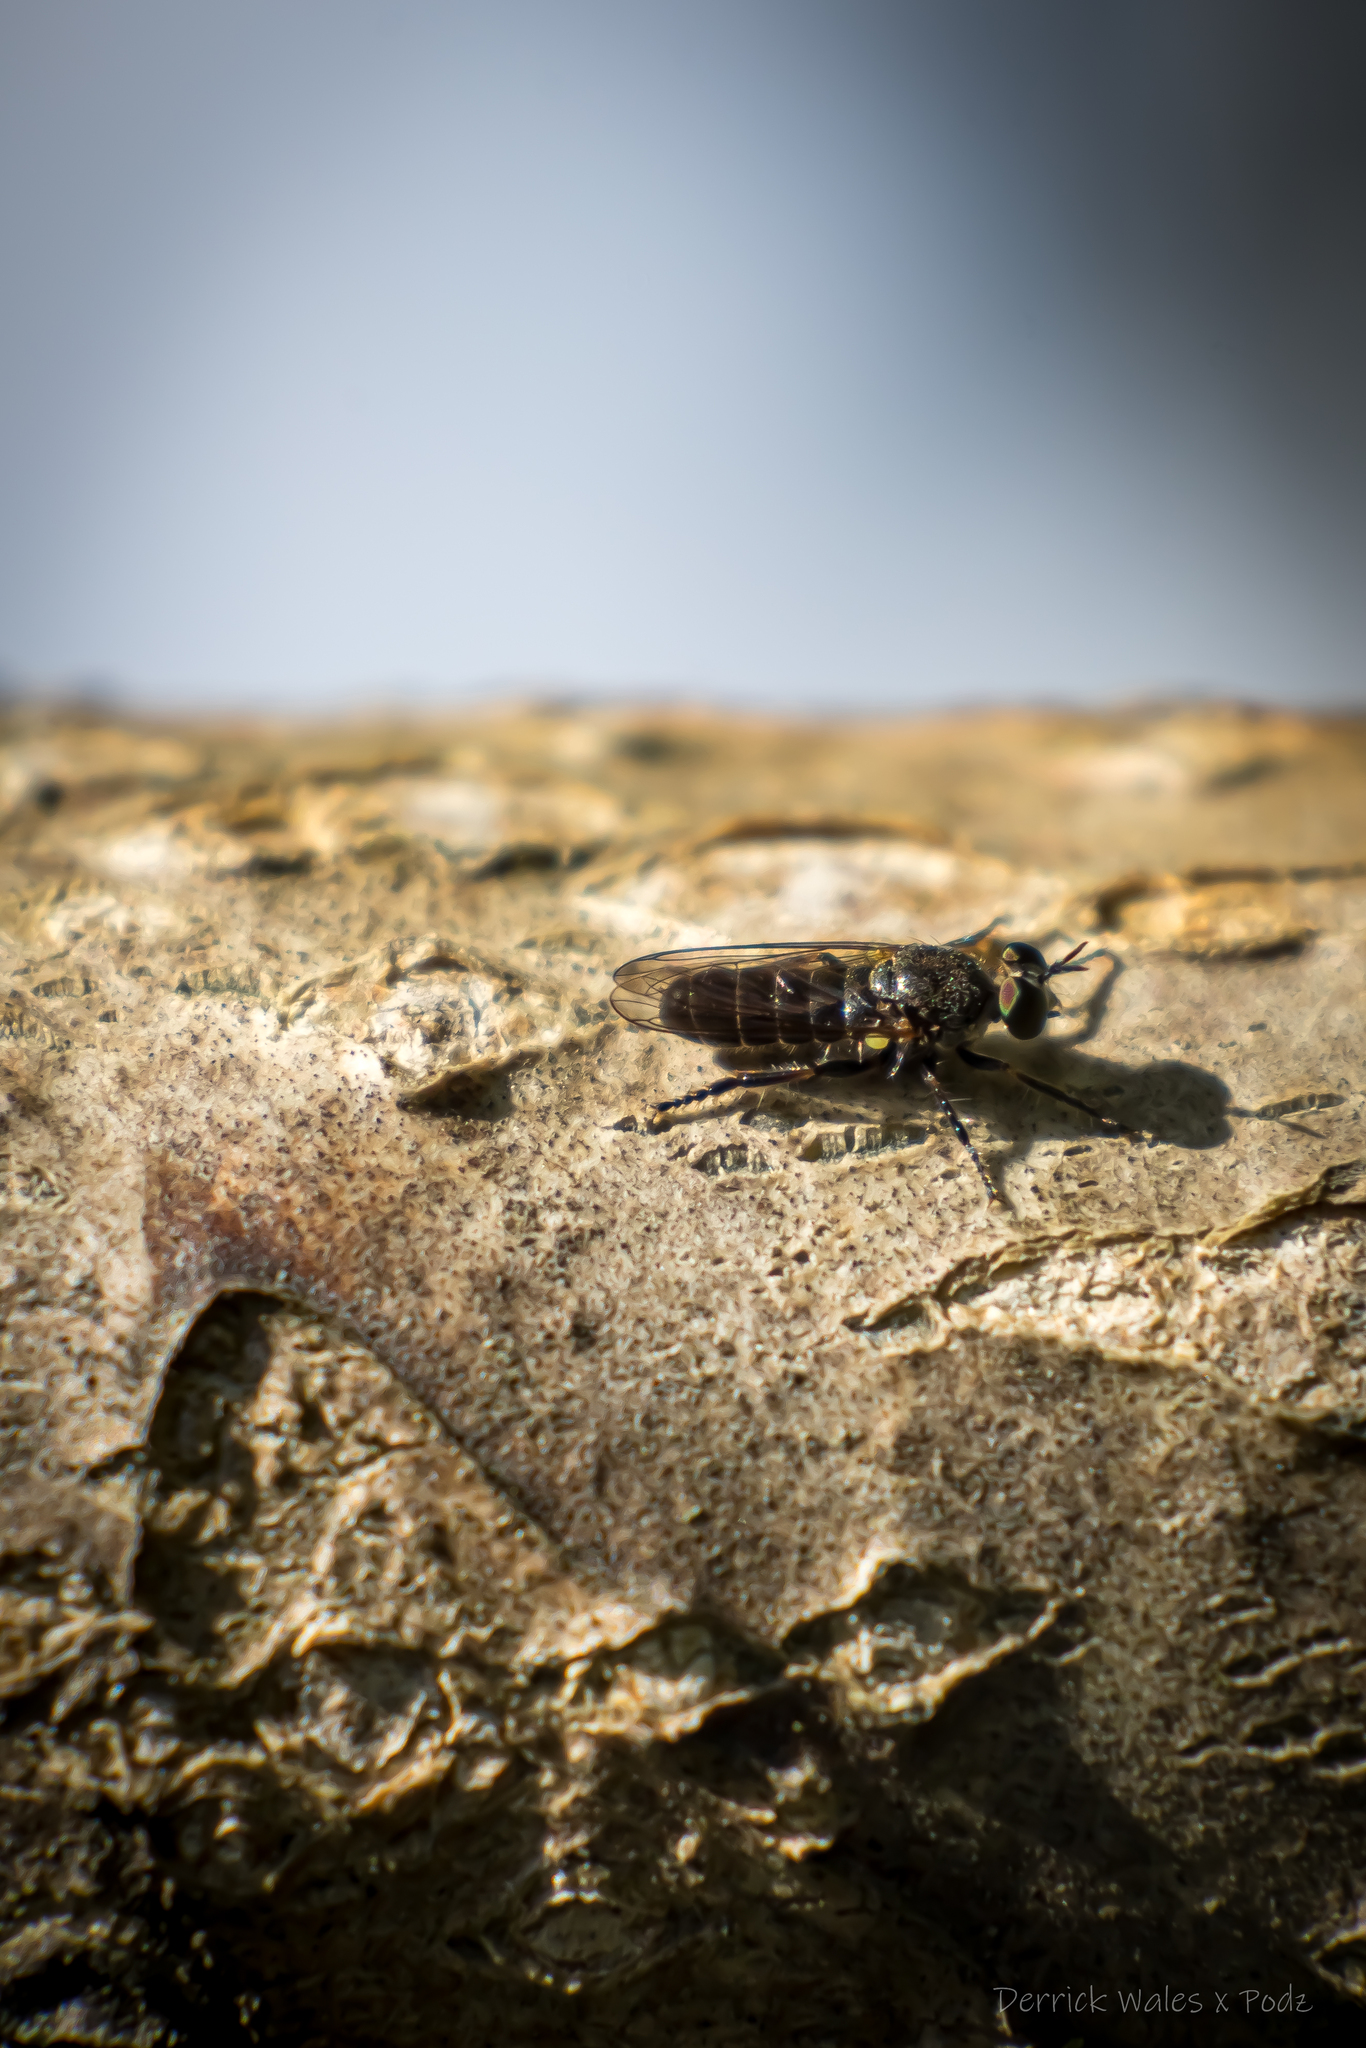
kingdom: Animalia
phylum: Arthropoda
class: Insecta
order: Diptera
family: Asilidae
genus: Atomosia
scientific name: Atomosia puella
